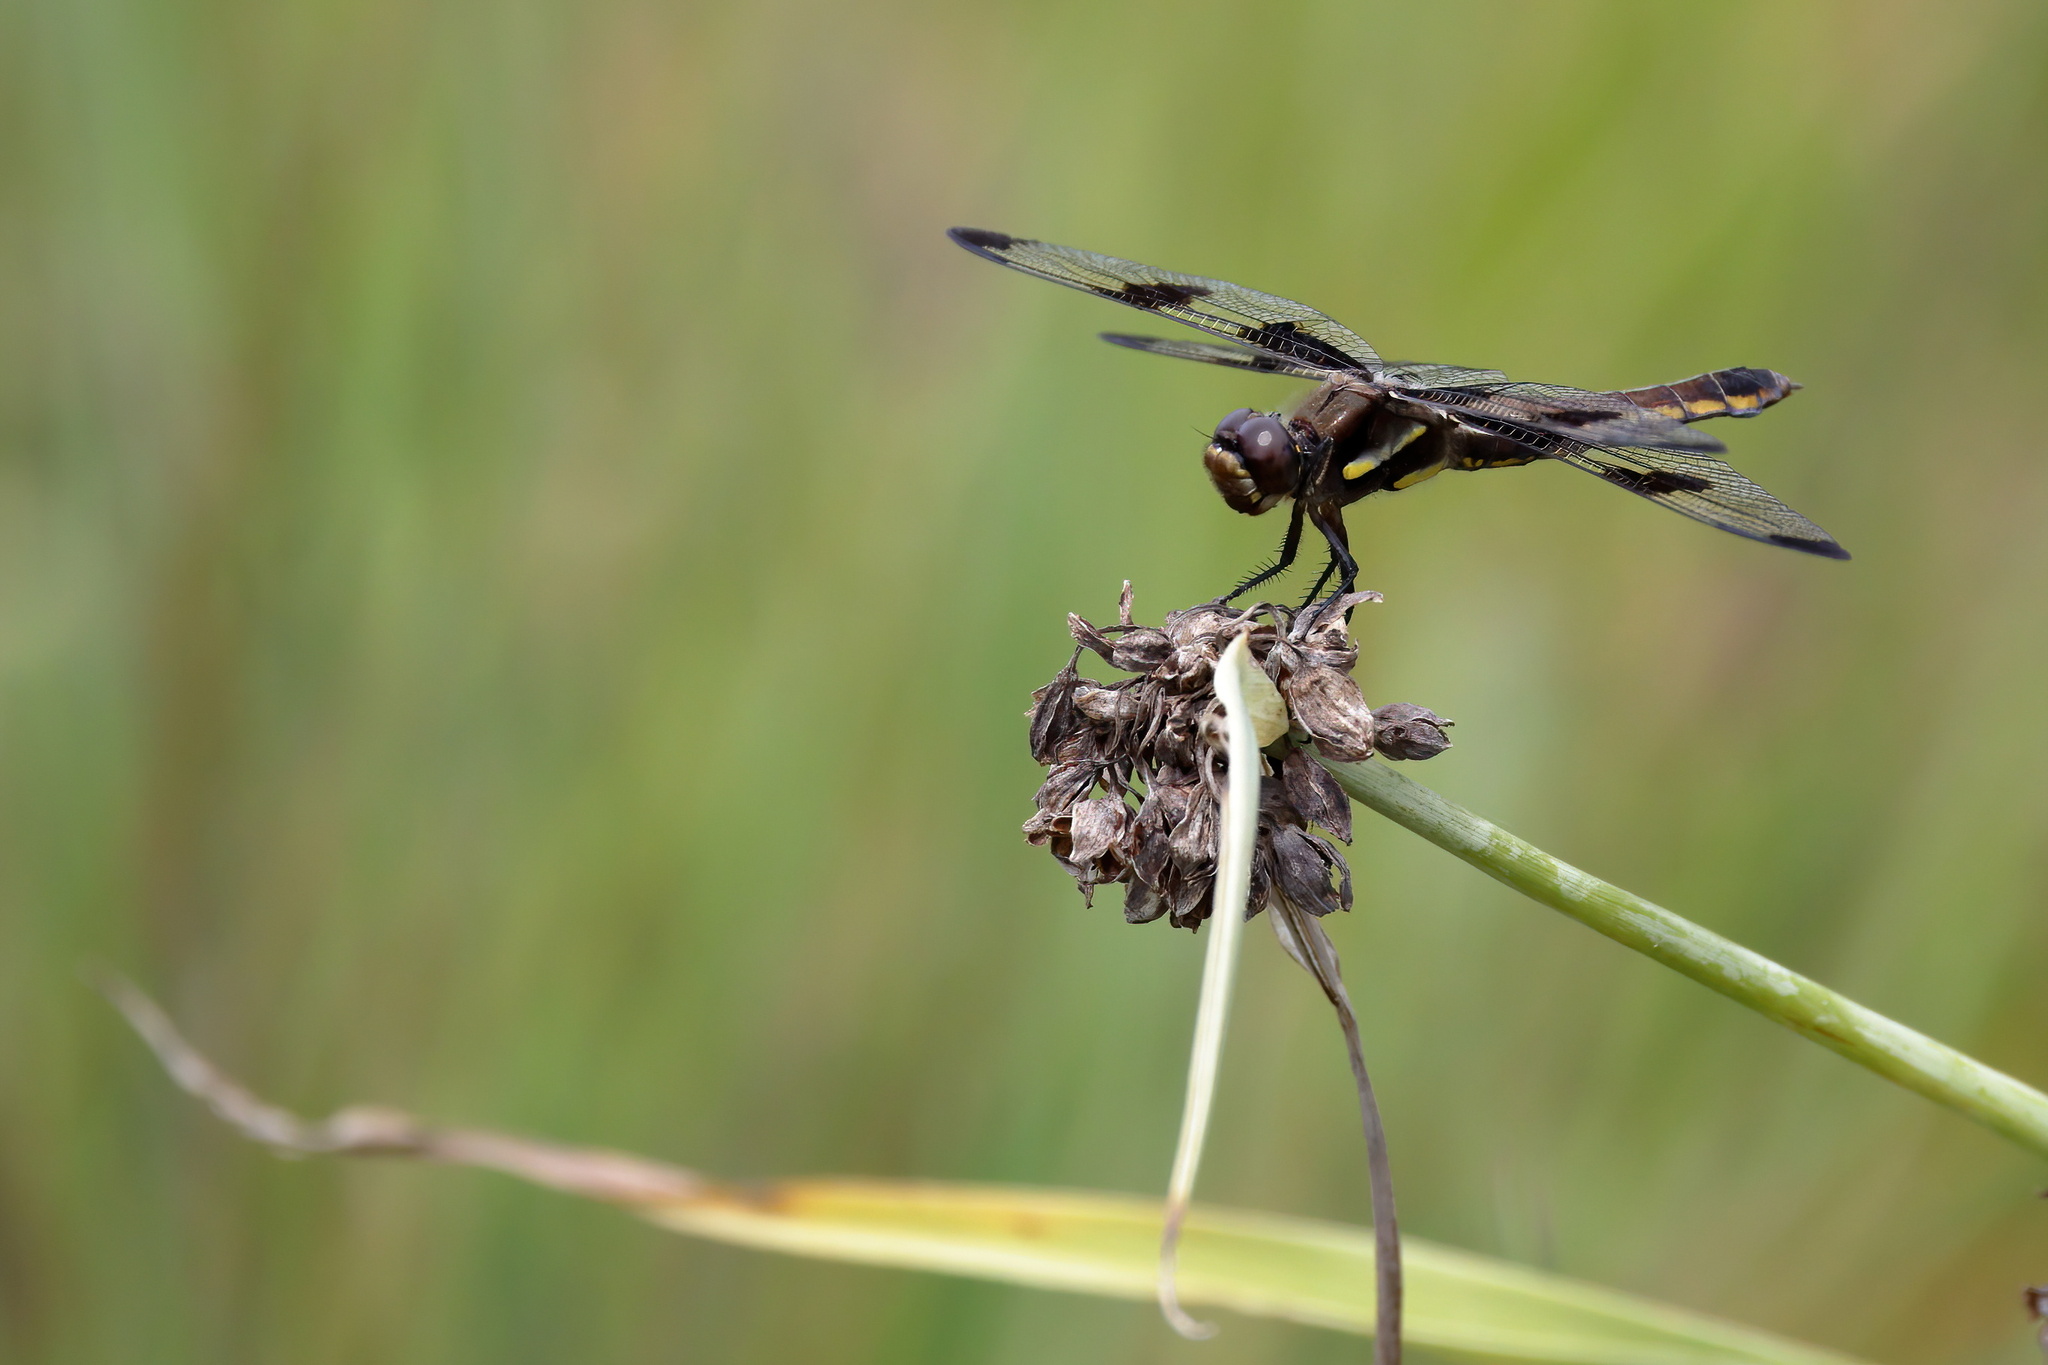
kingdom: Animalia
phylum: Arthropoda
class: Insecta
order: Odonata
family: Libellulidae
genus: Libellula
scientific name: Libellula pulchella
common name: Twelve-spotted skimmer
